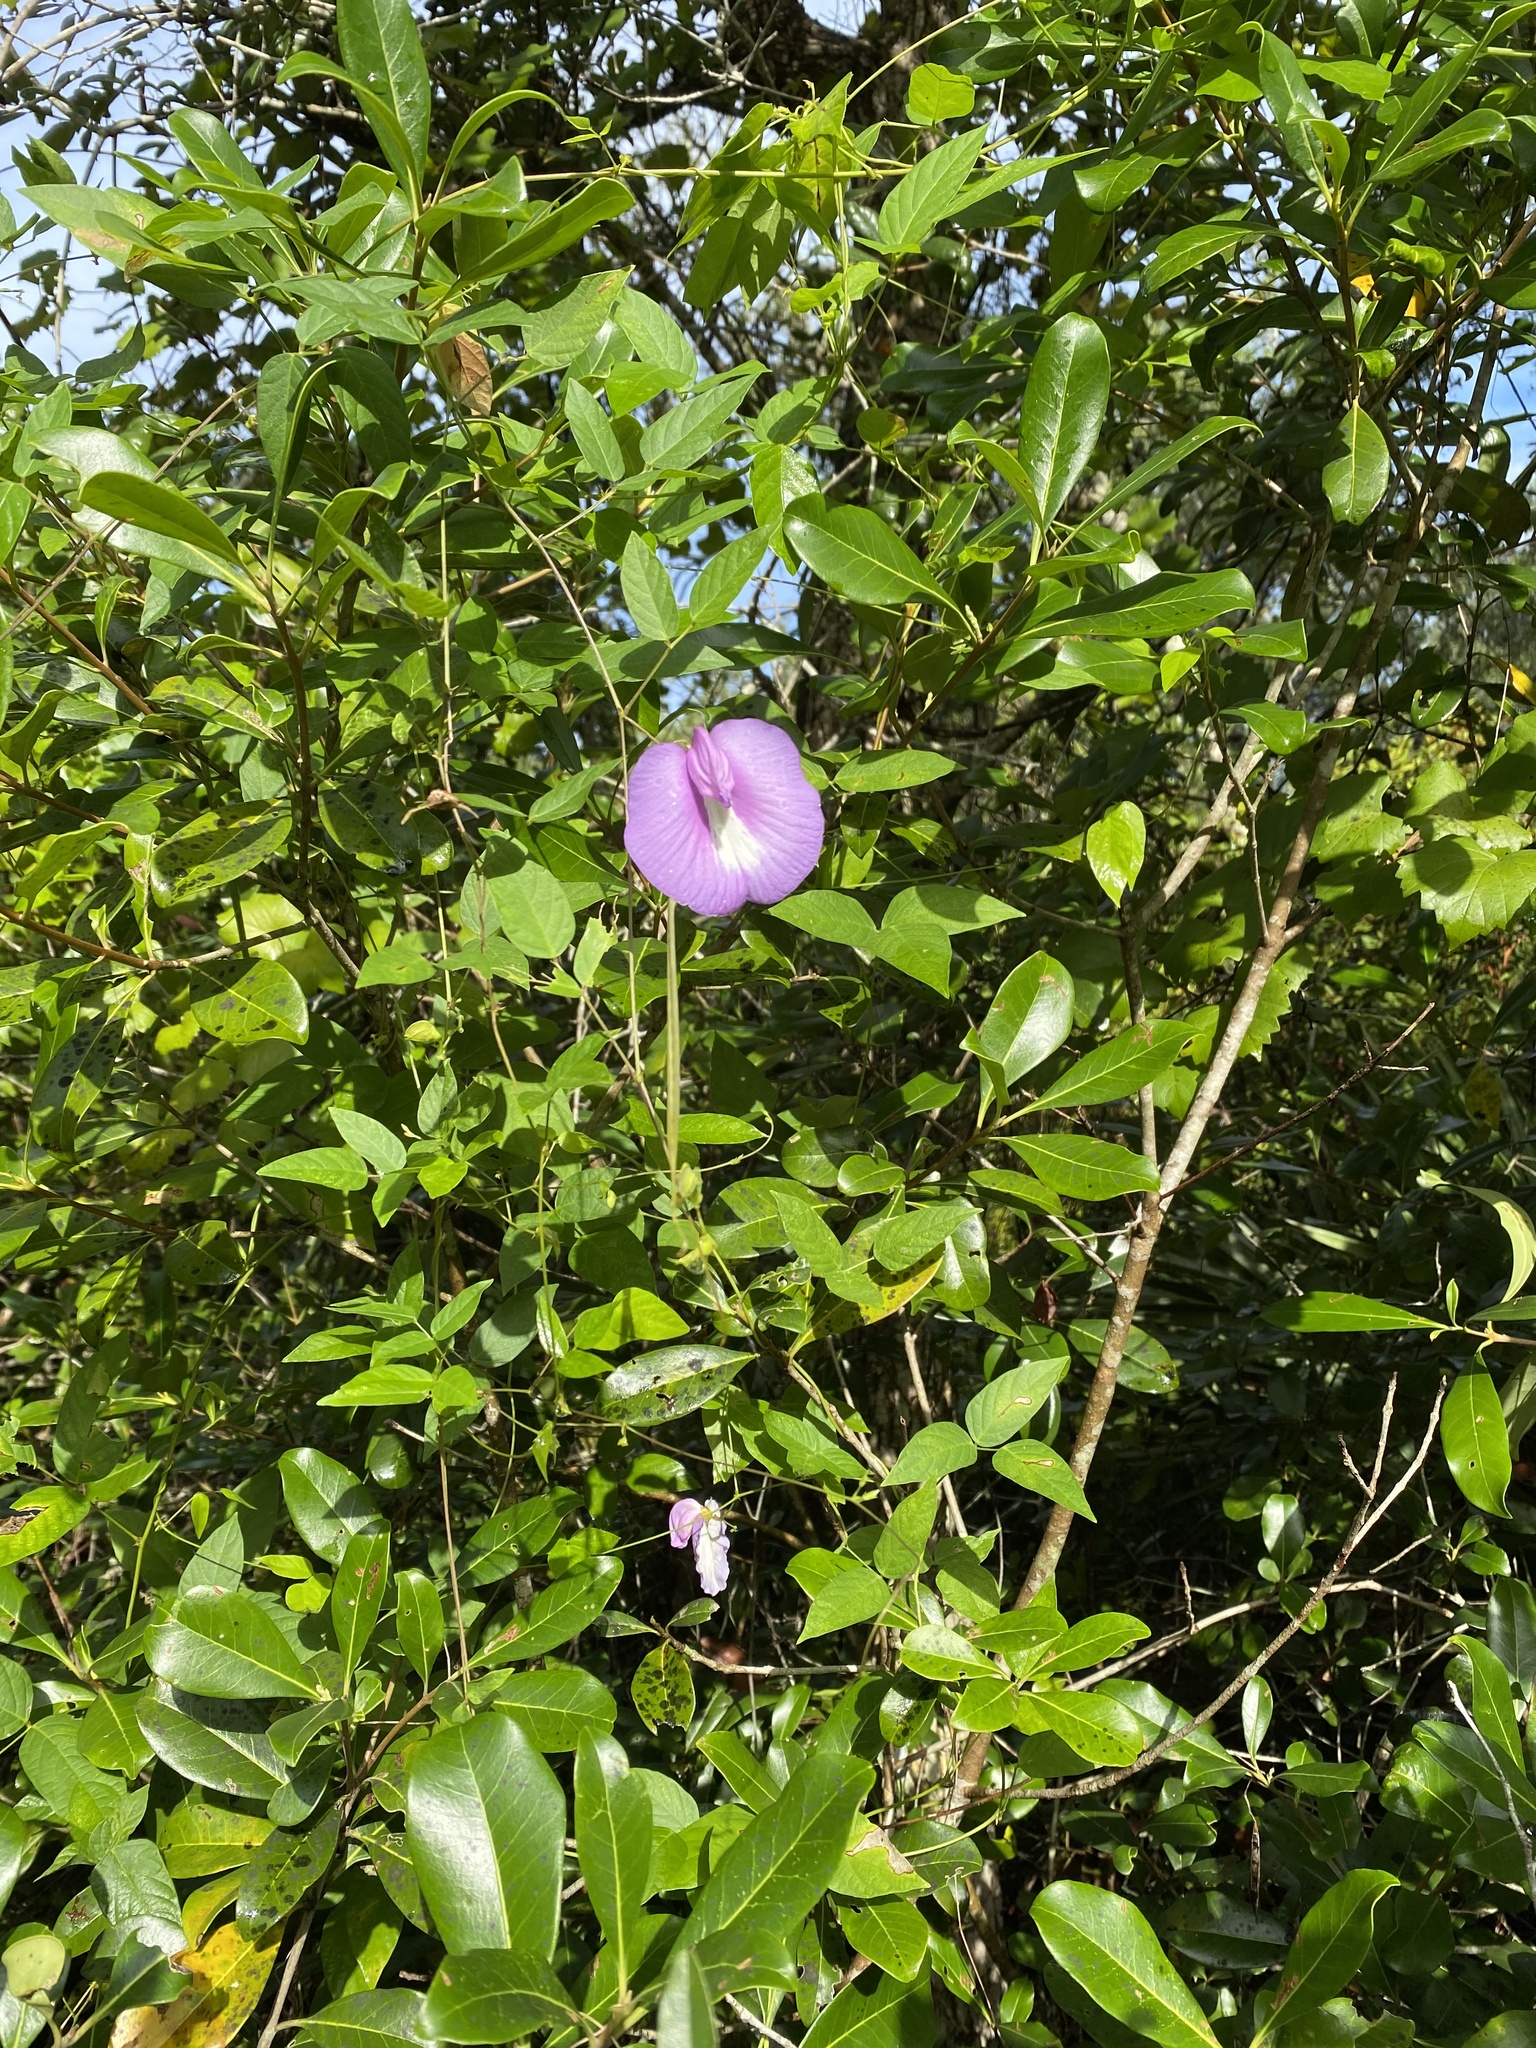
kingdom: Plantae
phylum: Tracheophyta
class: Magnoliopsida
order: Fabales
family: Fabaceae
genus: Centrosema
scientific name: Centrosema virginianum
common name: Butterfly-pea
